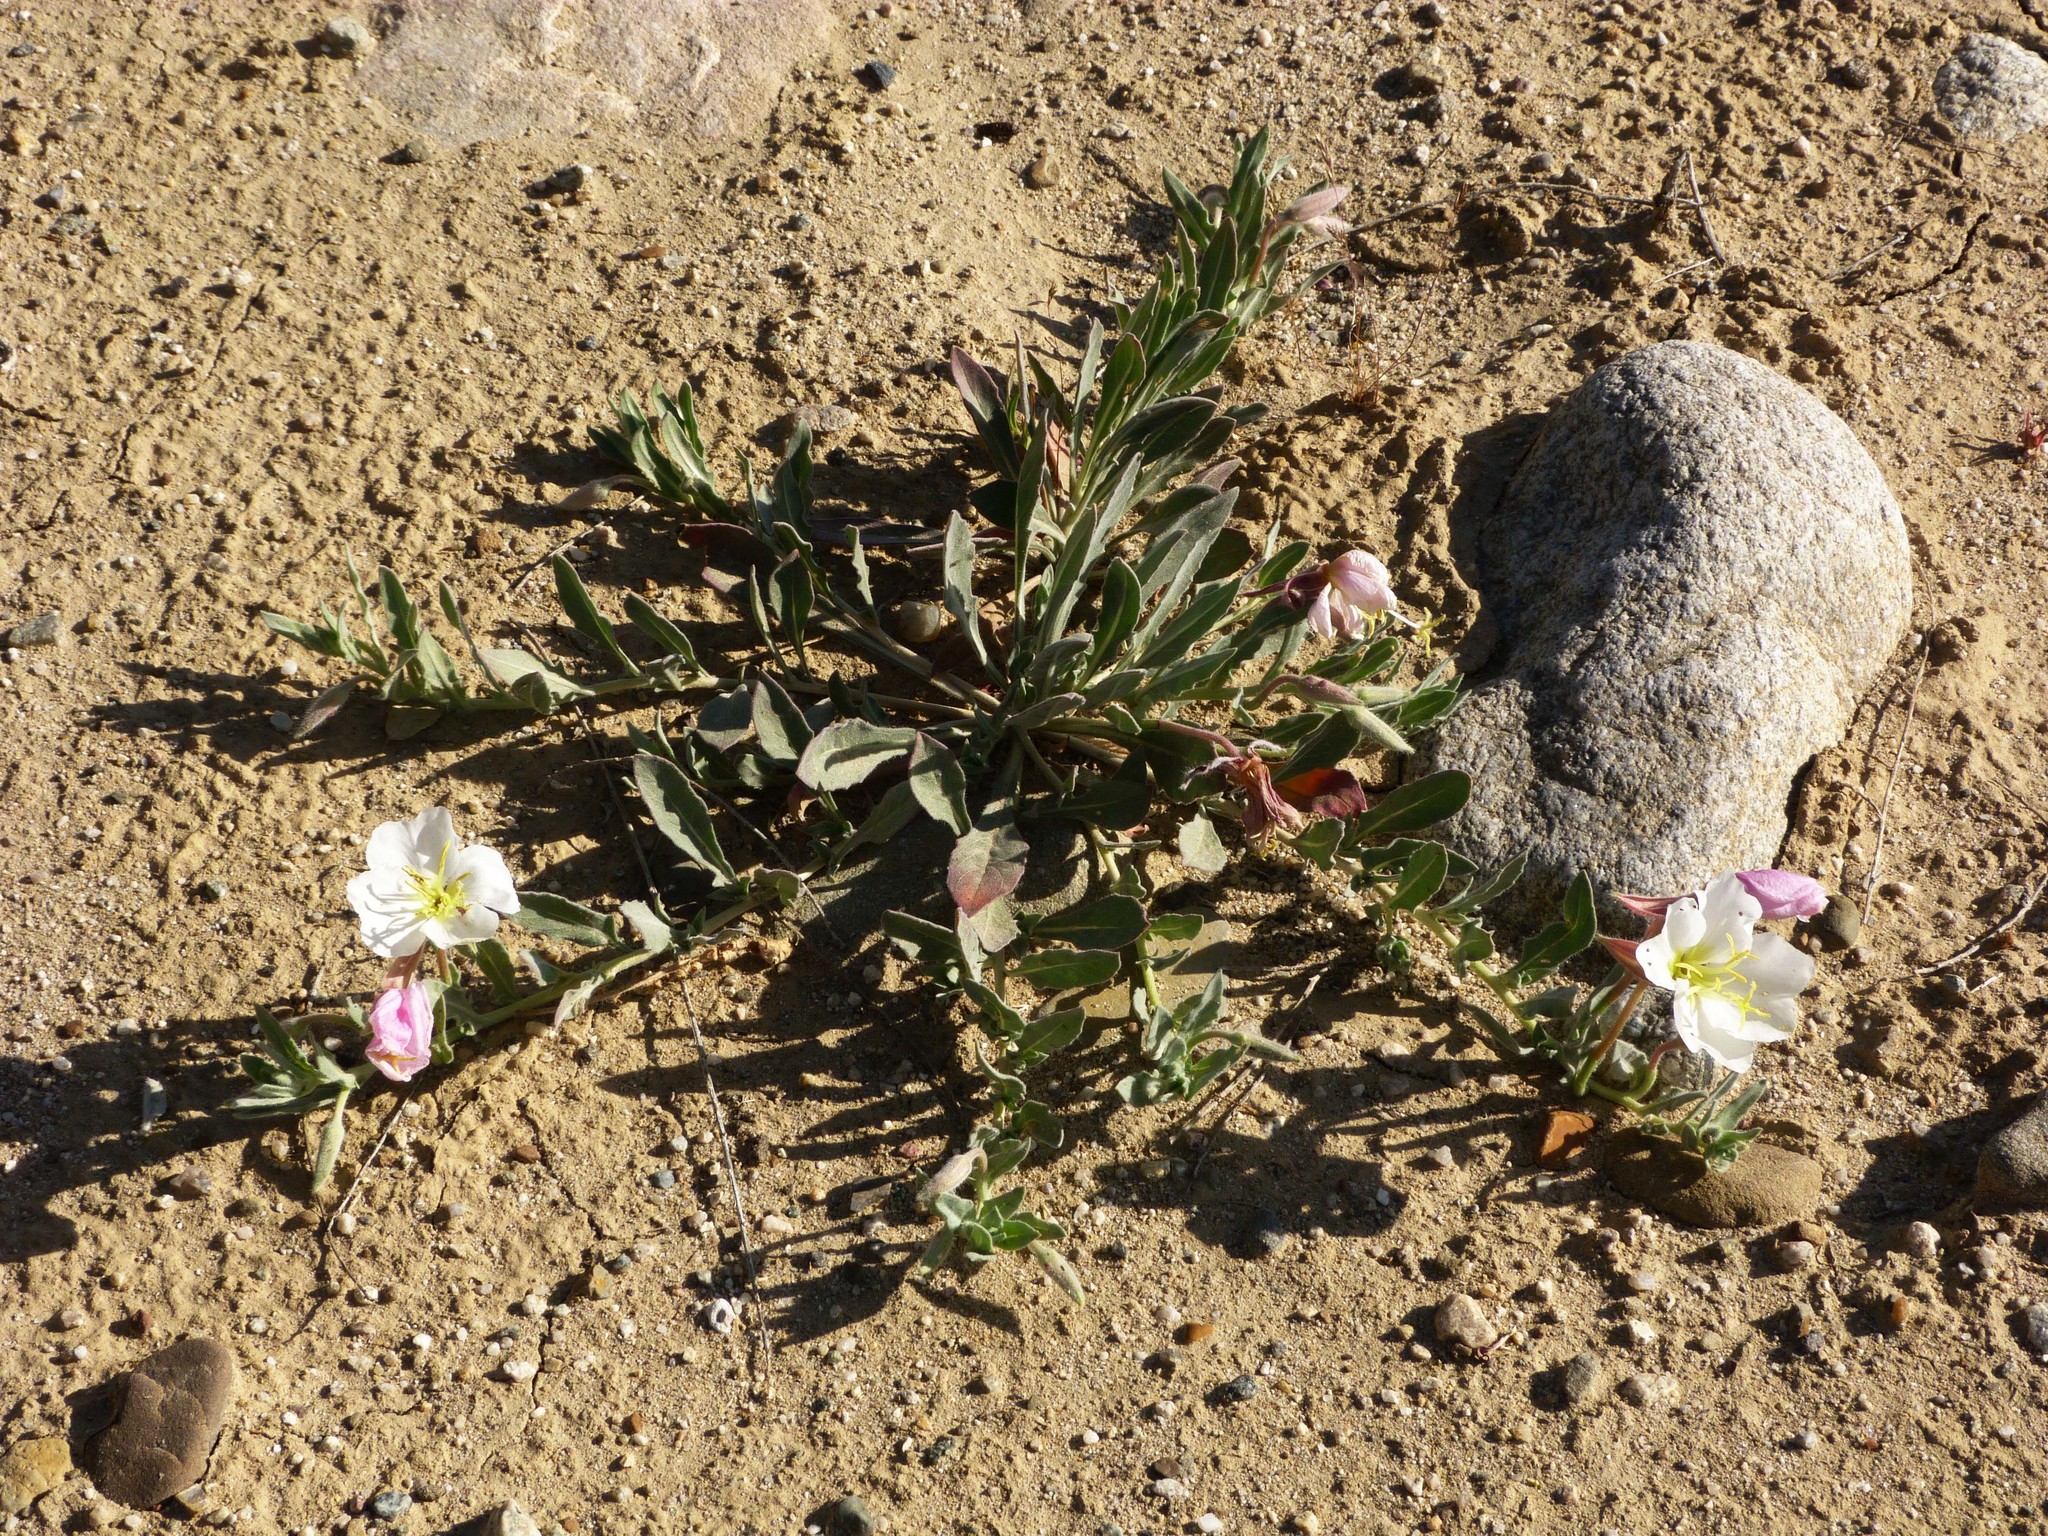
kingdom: Plantae
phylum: Tracheophyta
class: Magnoliopsida
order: Myrtales
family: Onagraceae
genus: Oenothera
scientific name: Oenothera californica
